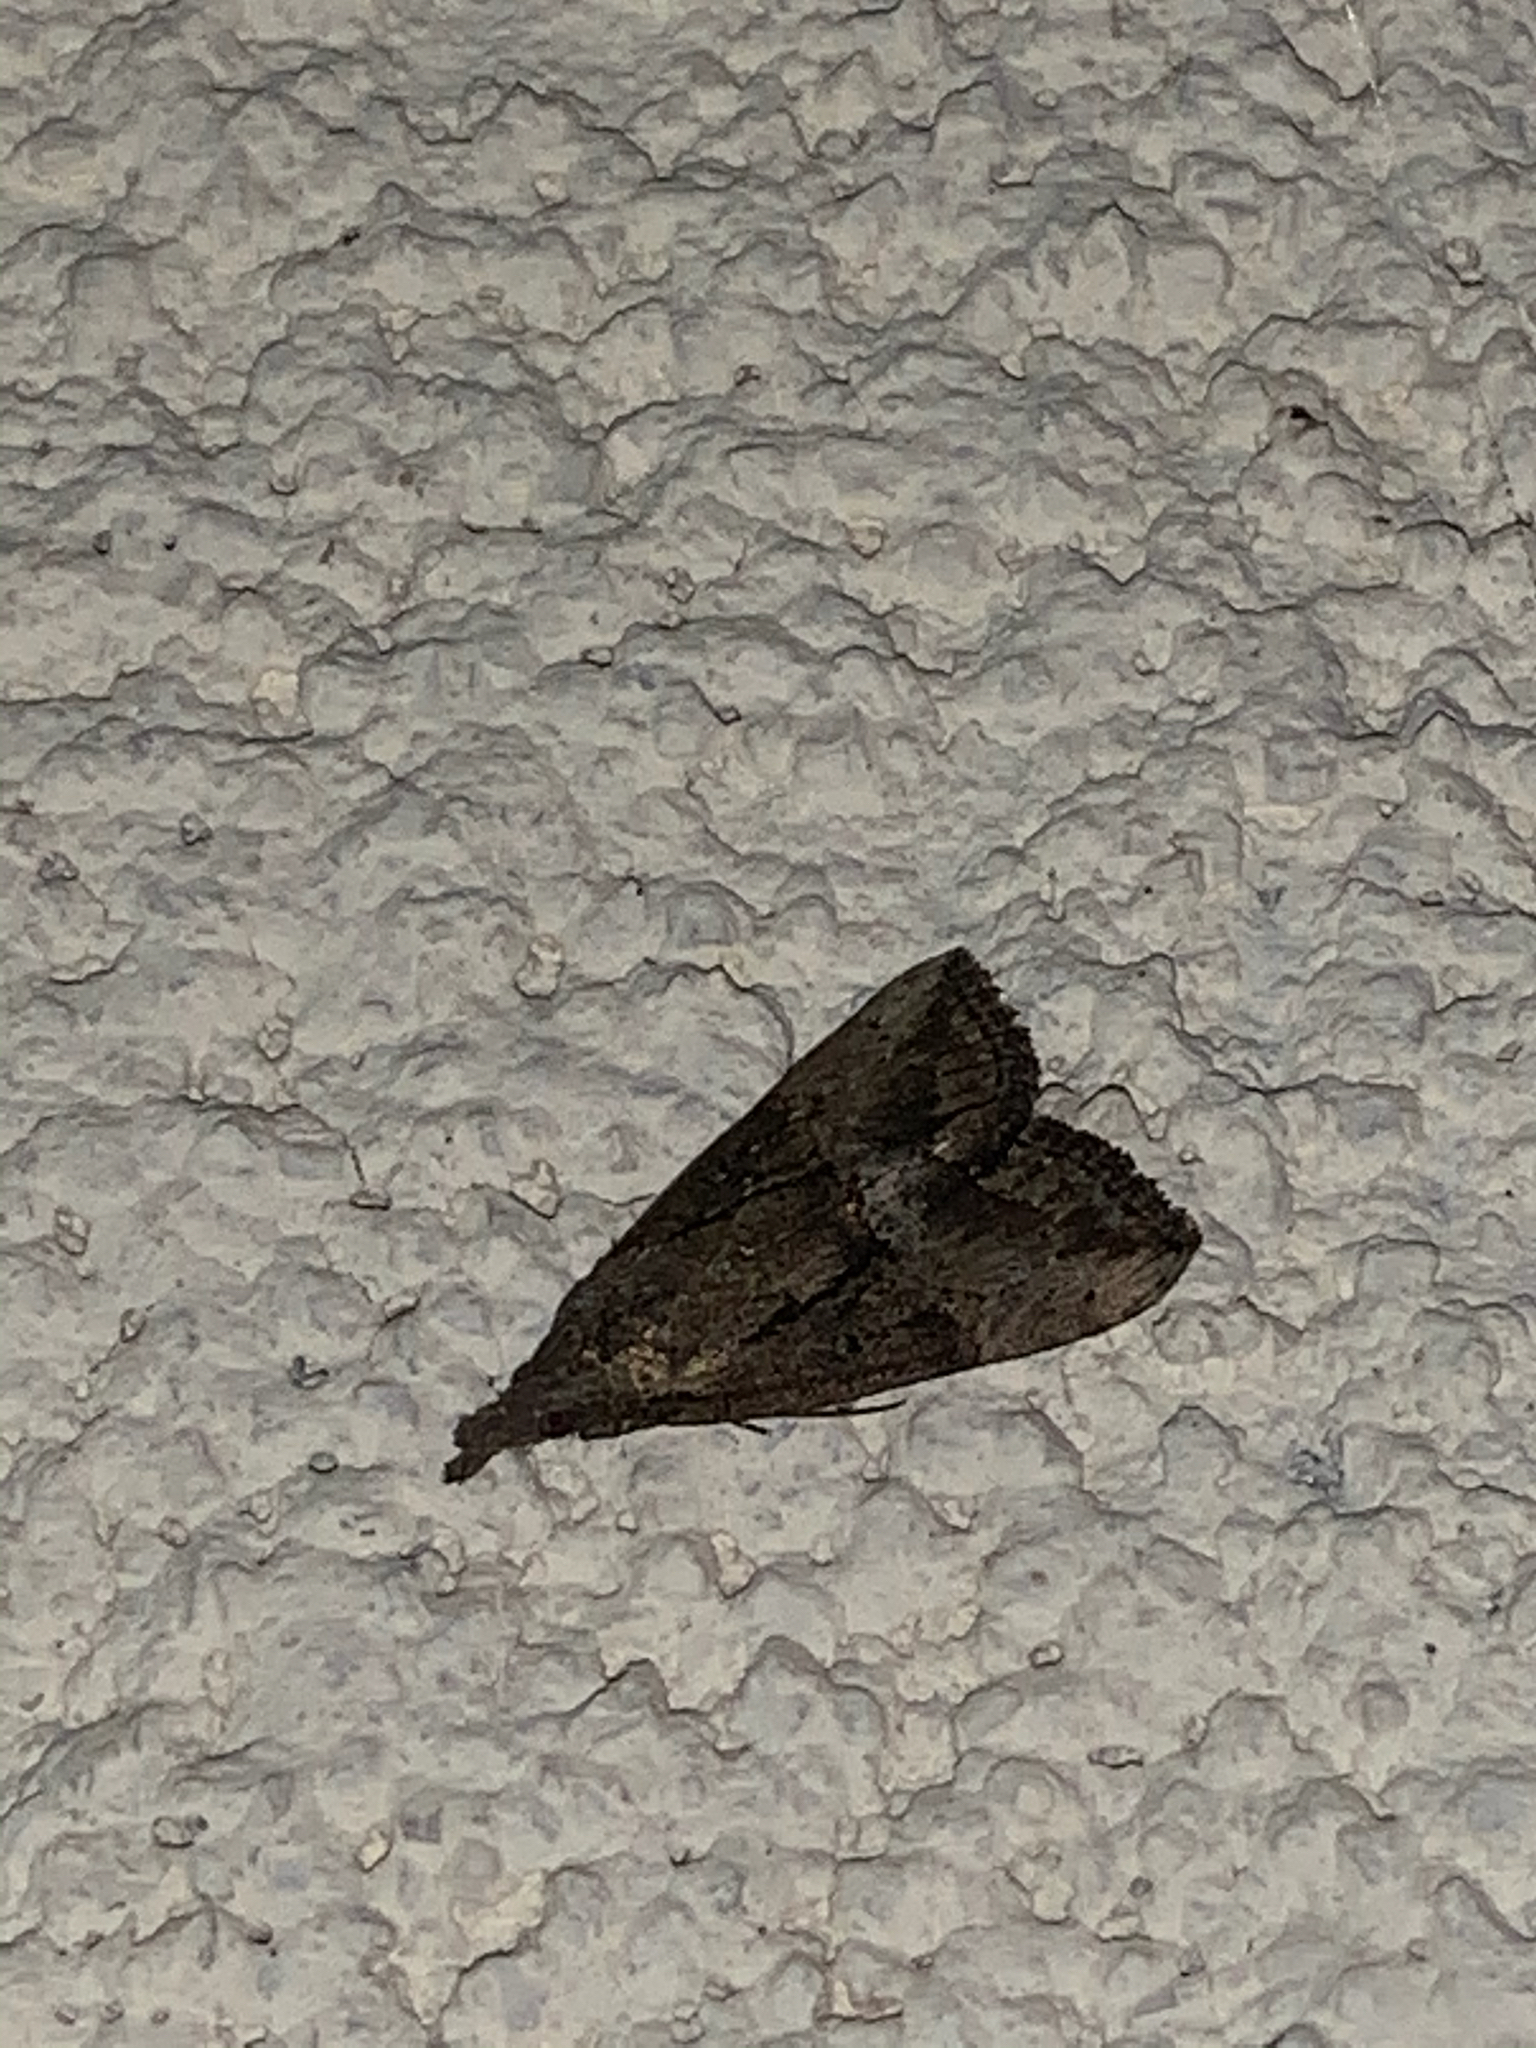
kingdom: Animalia
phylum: Arthropoda
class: Insecta
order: Lepidoptera
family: Erebidae
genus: Hypena
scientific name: Hypena scabra
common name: Green cloverworm
